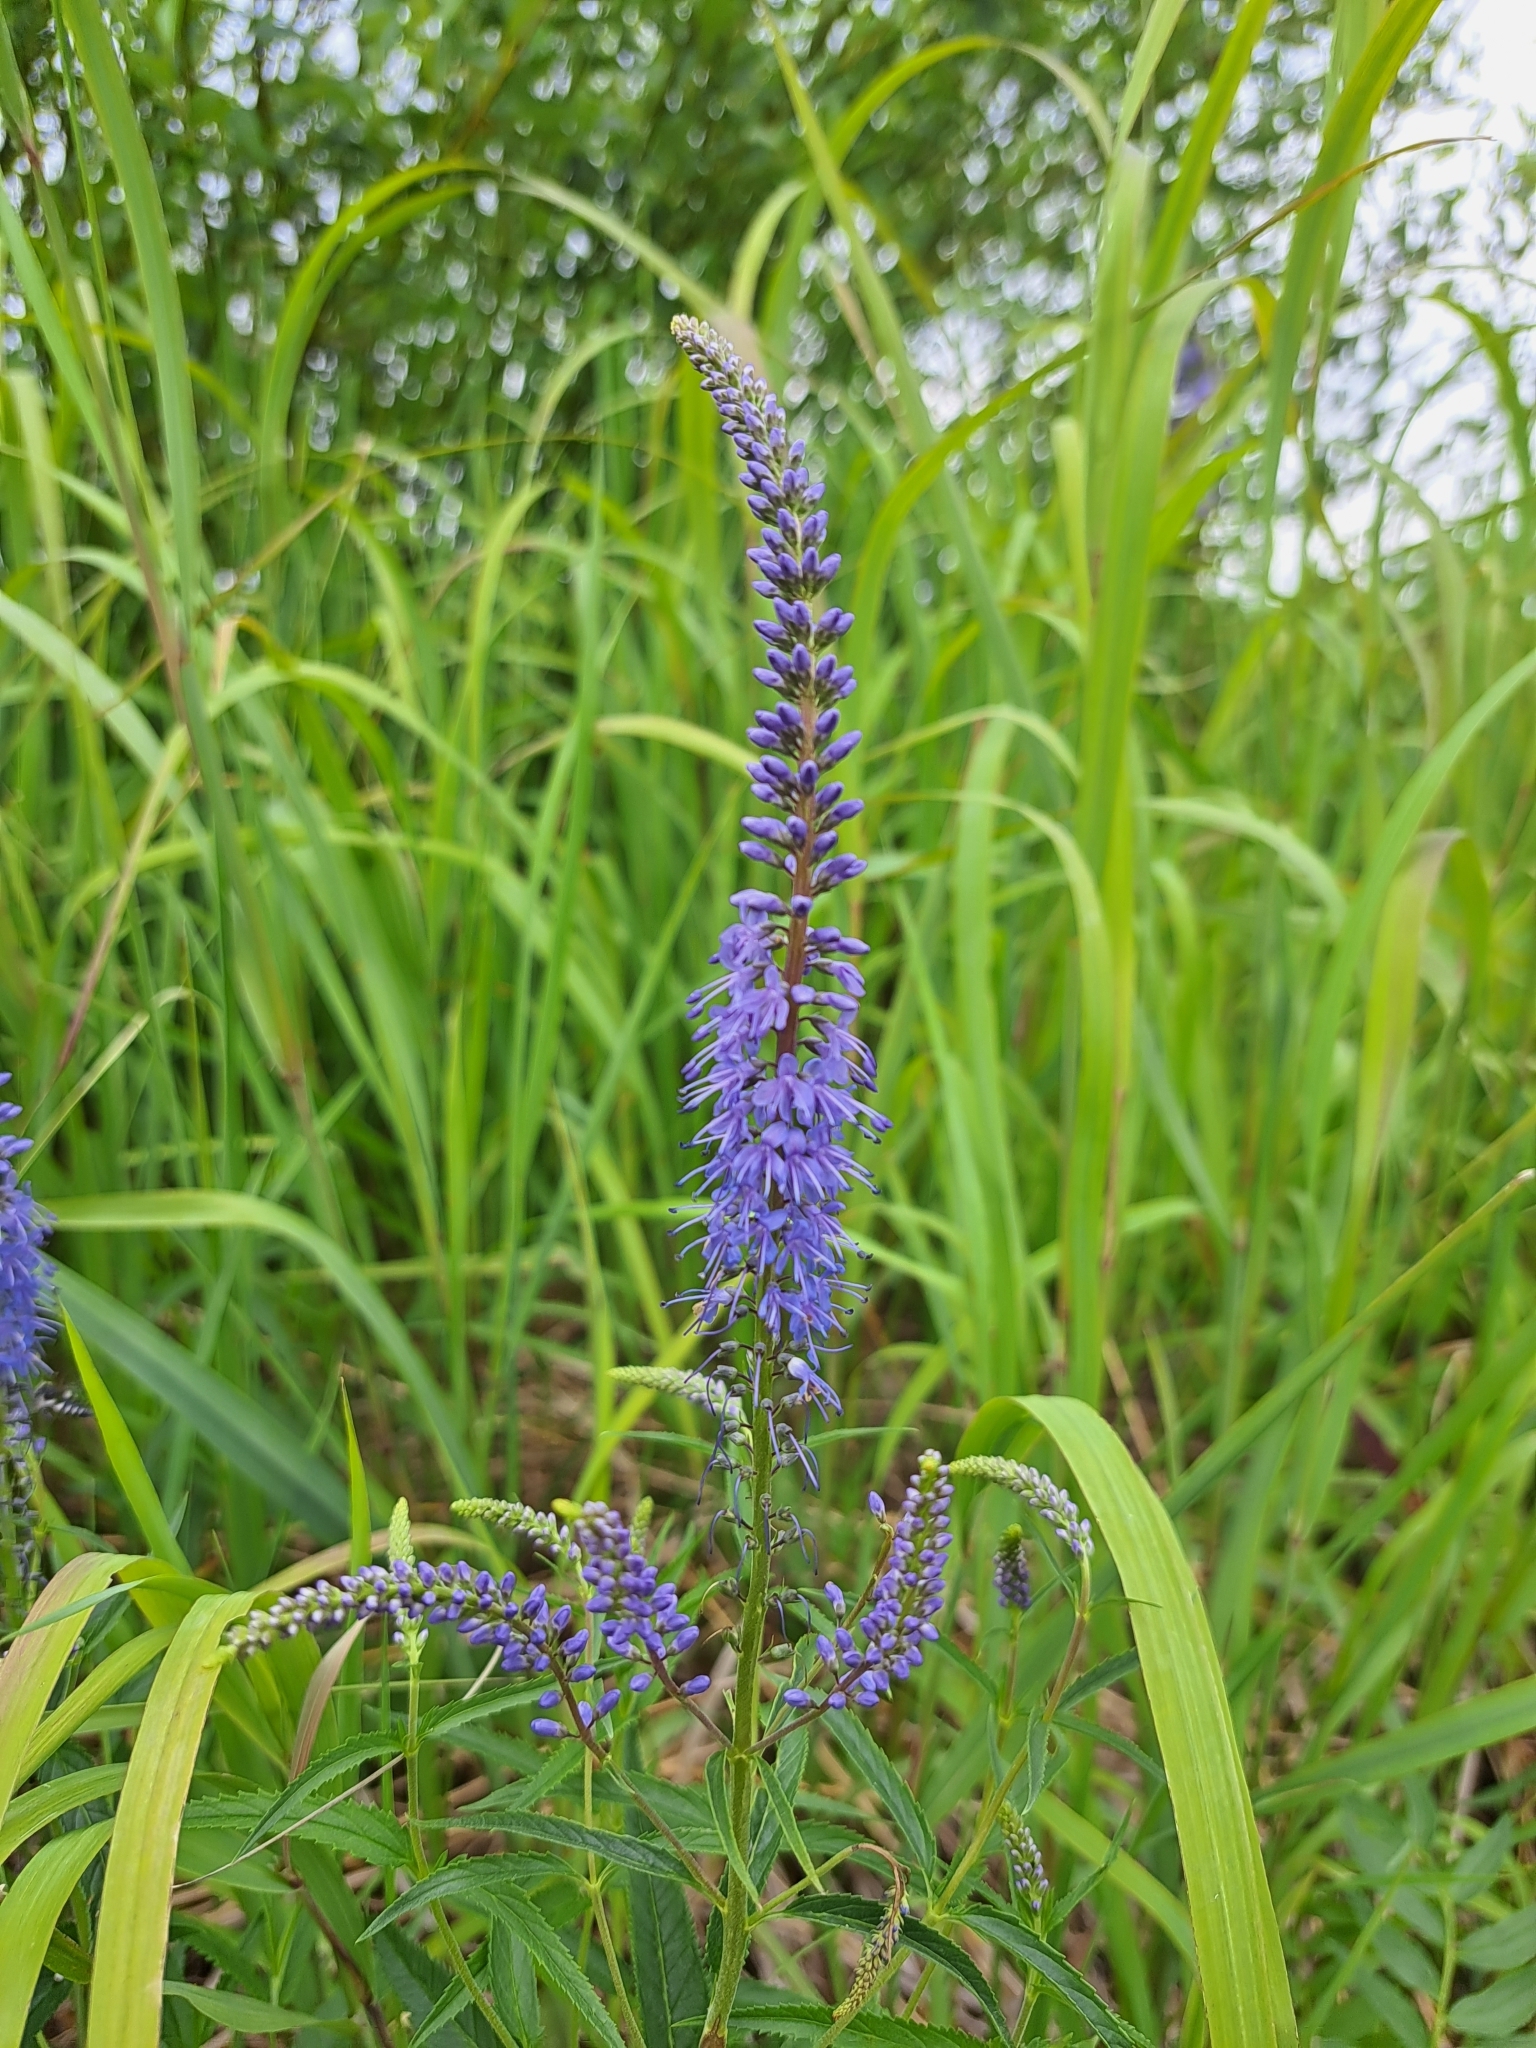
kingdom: Plantae
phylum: Tracheophyta
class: Magnoliopsida
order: Lamiales
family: Plantaginaceae
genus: Veronica
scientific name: Veronica longifolia
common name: Garden speedwell
